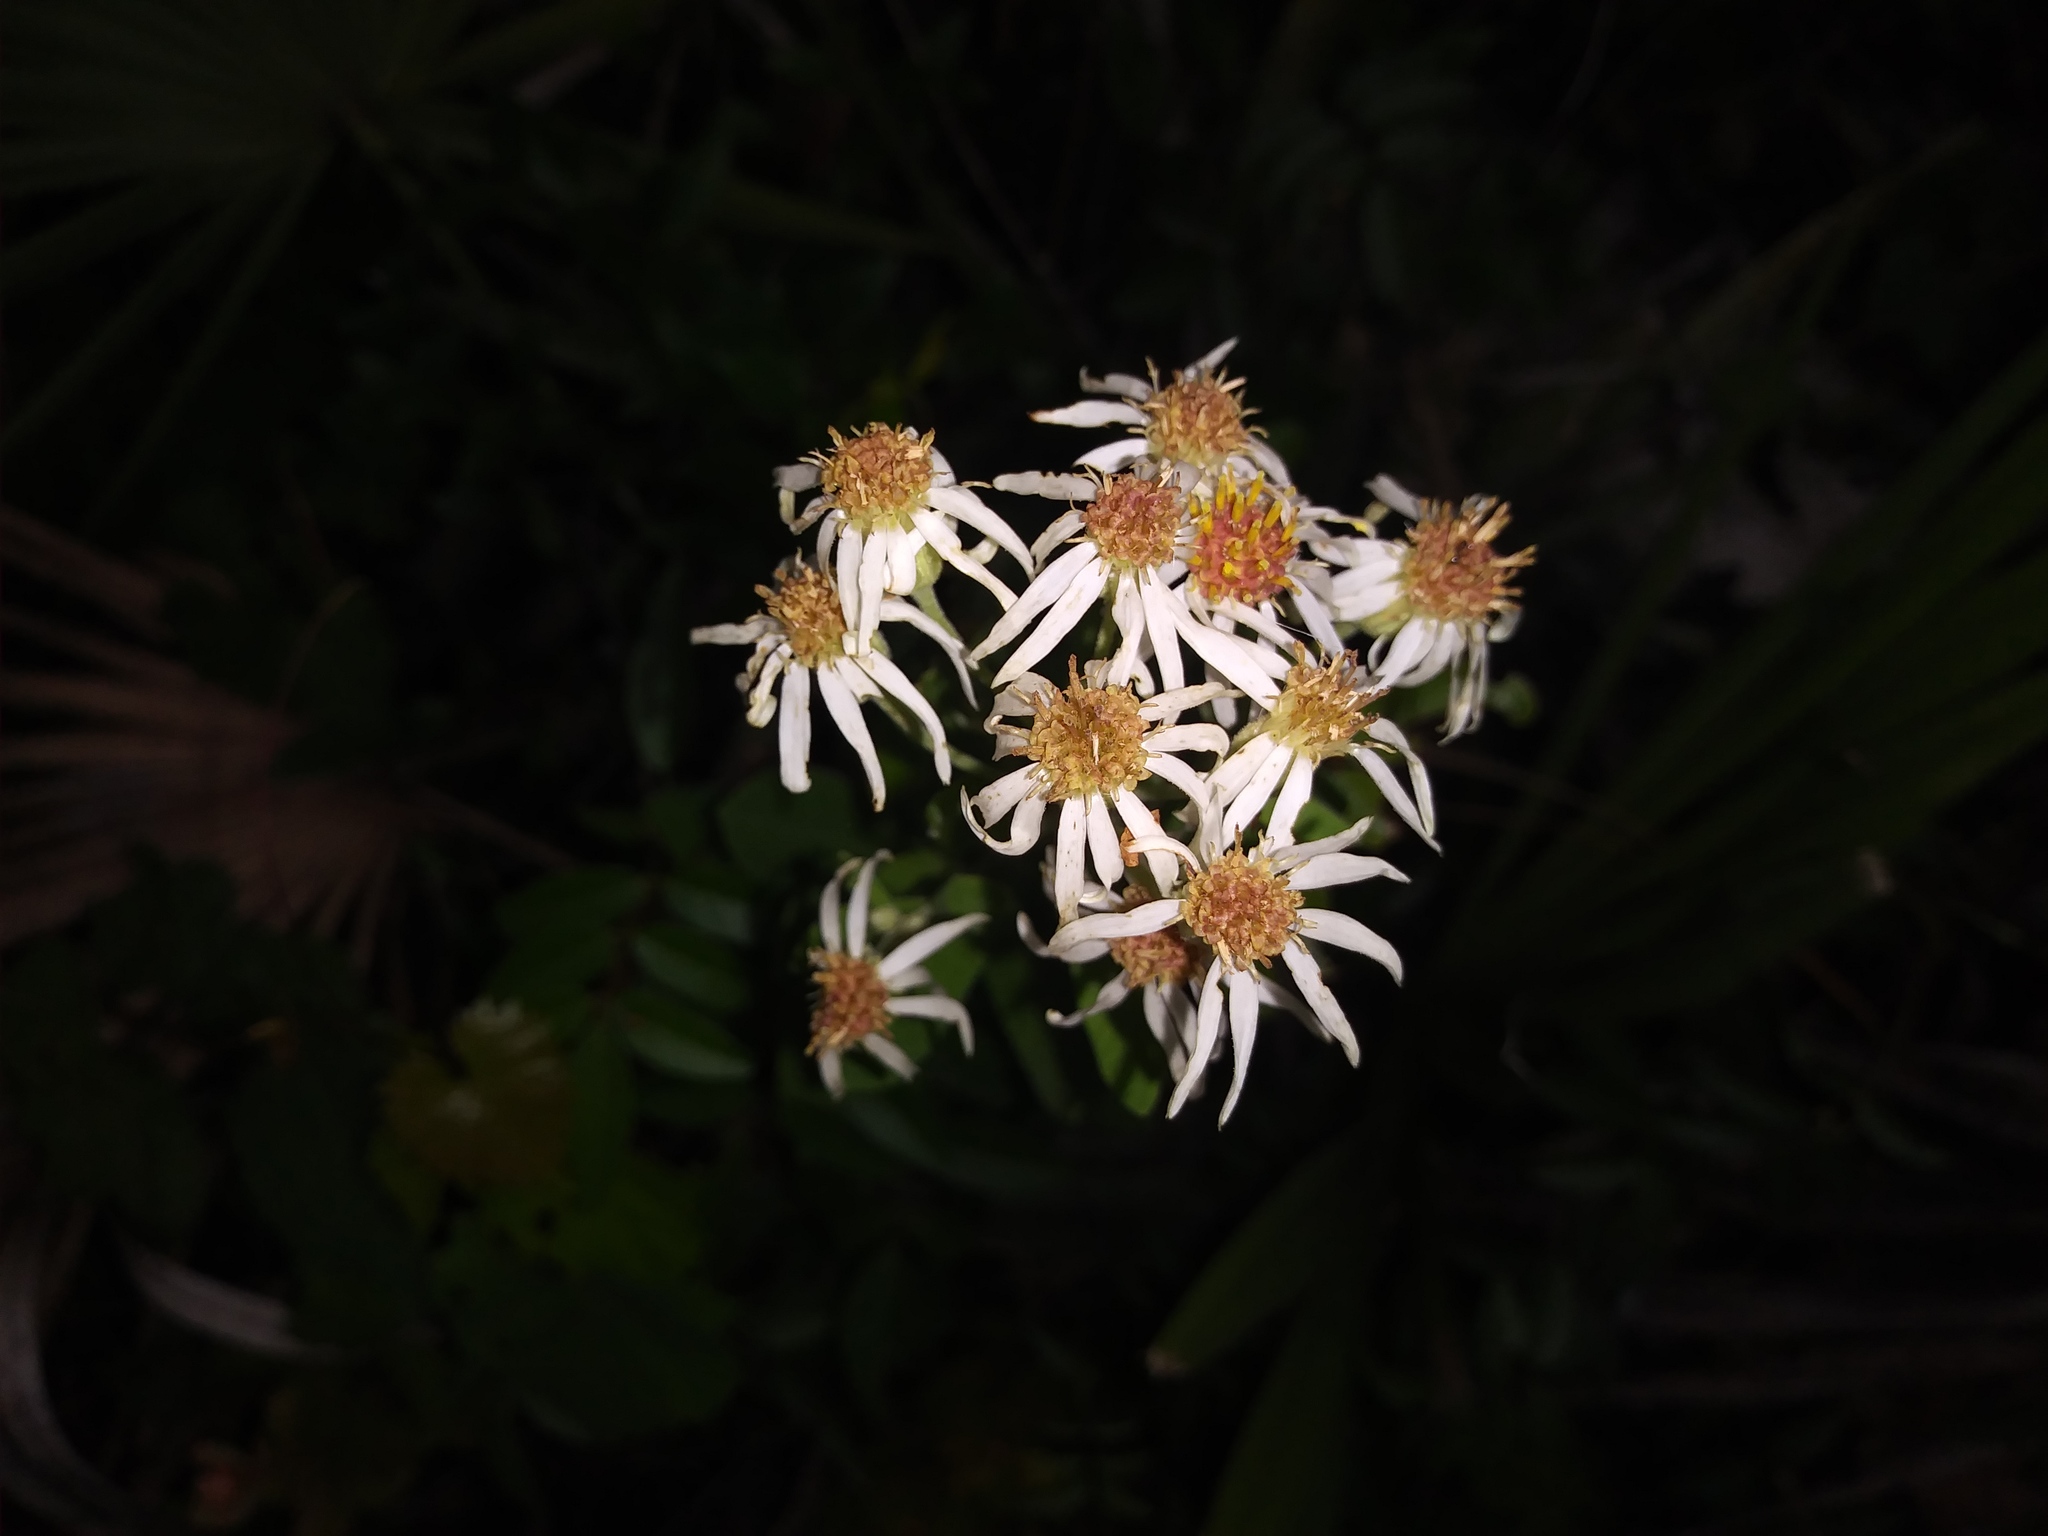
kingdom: Plantae
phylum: Tracheophyta
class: Magnoliopsida
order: Asterales
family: Asteraceae
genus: Oclemena
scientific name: Oclemena reticulata
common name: Pinebarren aster
